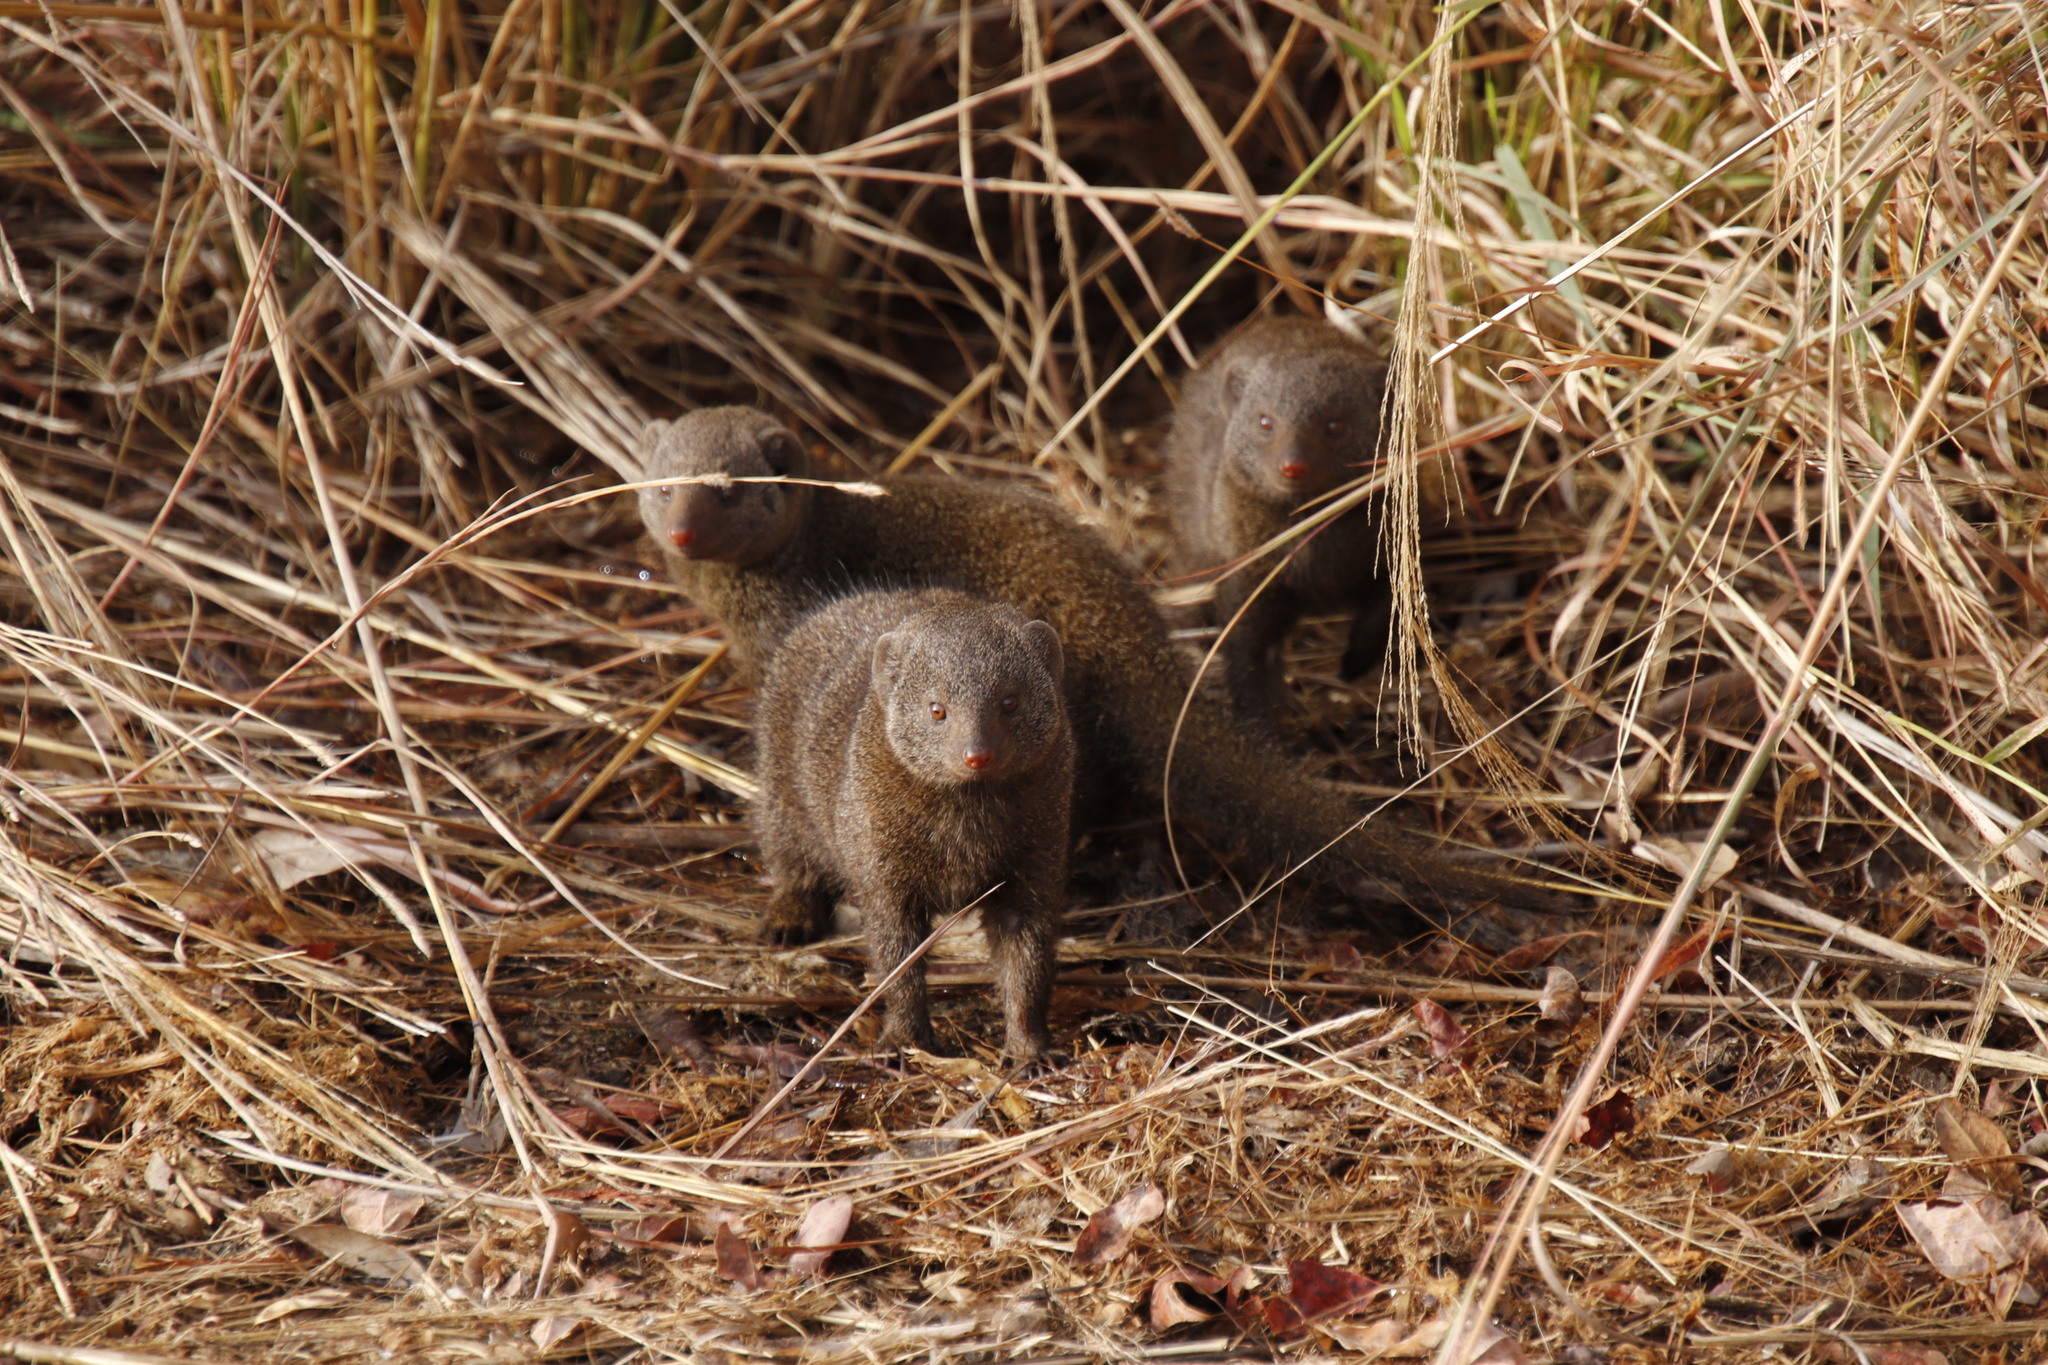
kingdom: Animalia
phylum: Chordata
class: Mammalia
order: Carnivora
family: Herpestidae
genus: Helogale
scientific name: Helogale parvula
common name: Common dwarf mongoose
